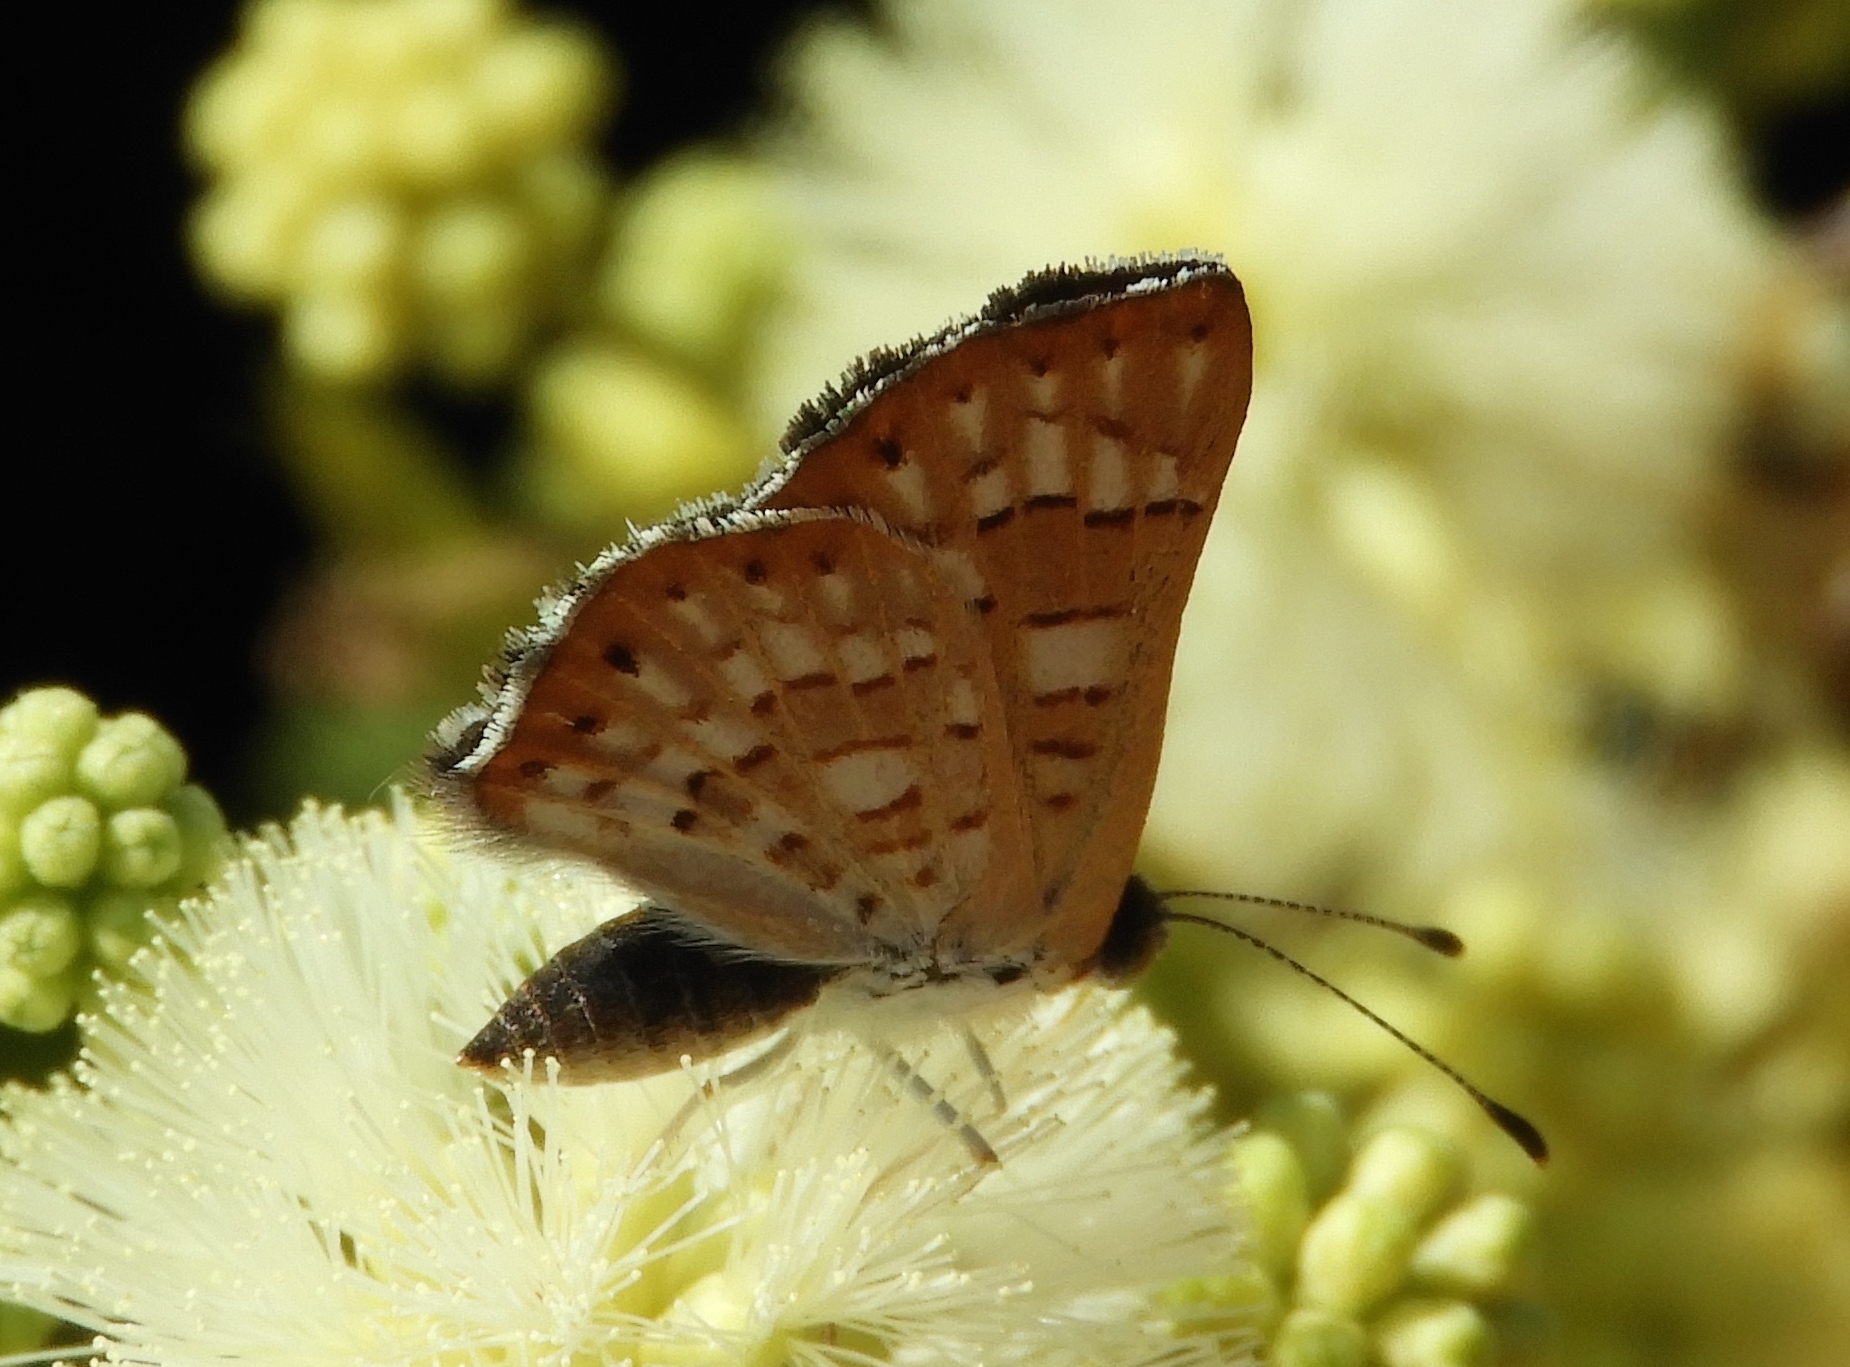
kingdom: Animalia
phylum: Arthropoda
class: Insecta
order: Lepidoptera
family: Riodinidae
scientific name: Riodinidae
